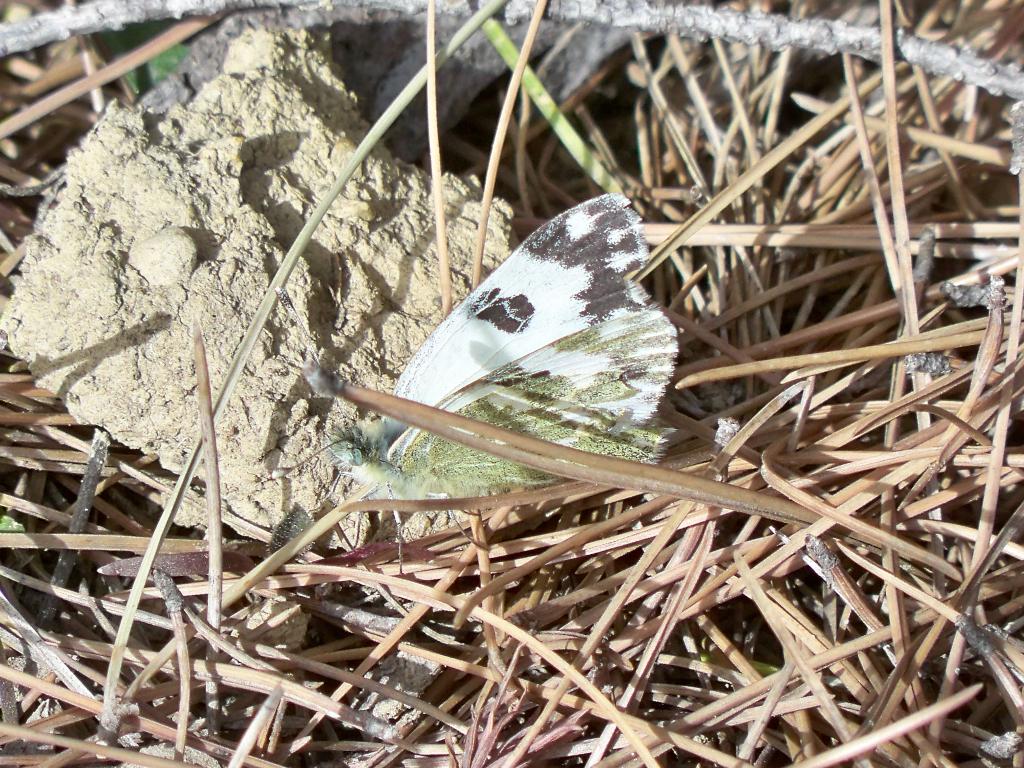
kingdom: Animalia
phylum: Arthropoda
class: Insecta
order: Lepidoptera
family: Pieridae
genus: Pontia
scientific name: Pontia daplidice
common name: Bath white
